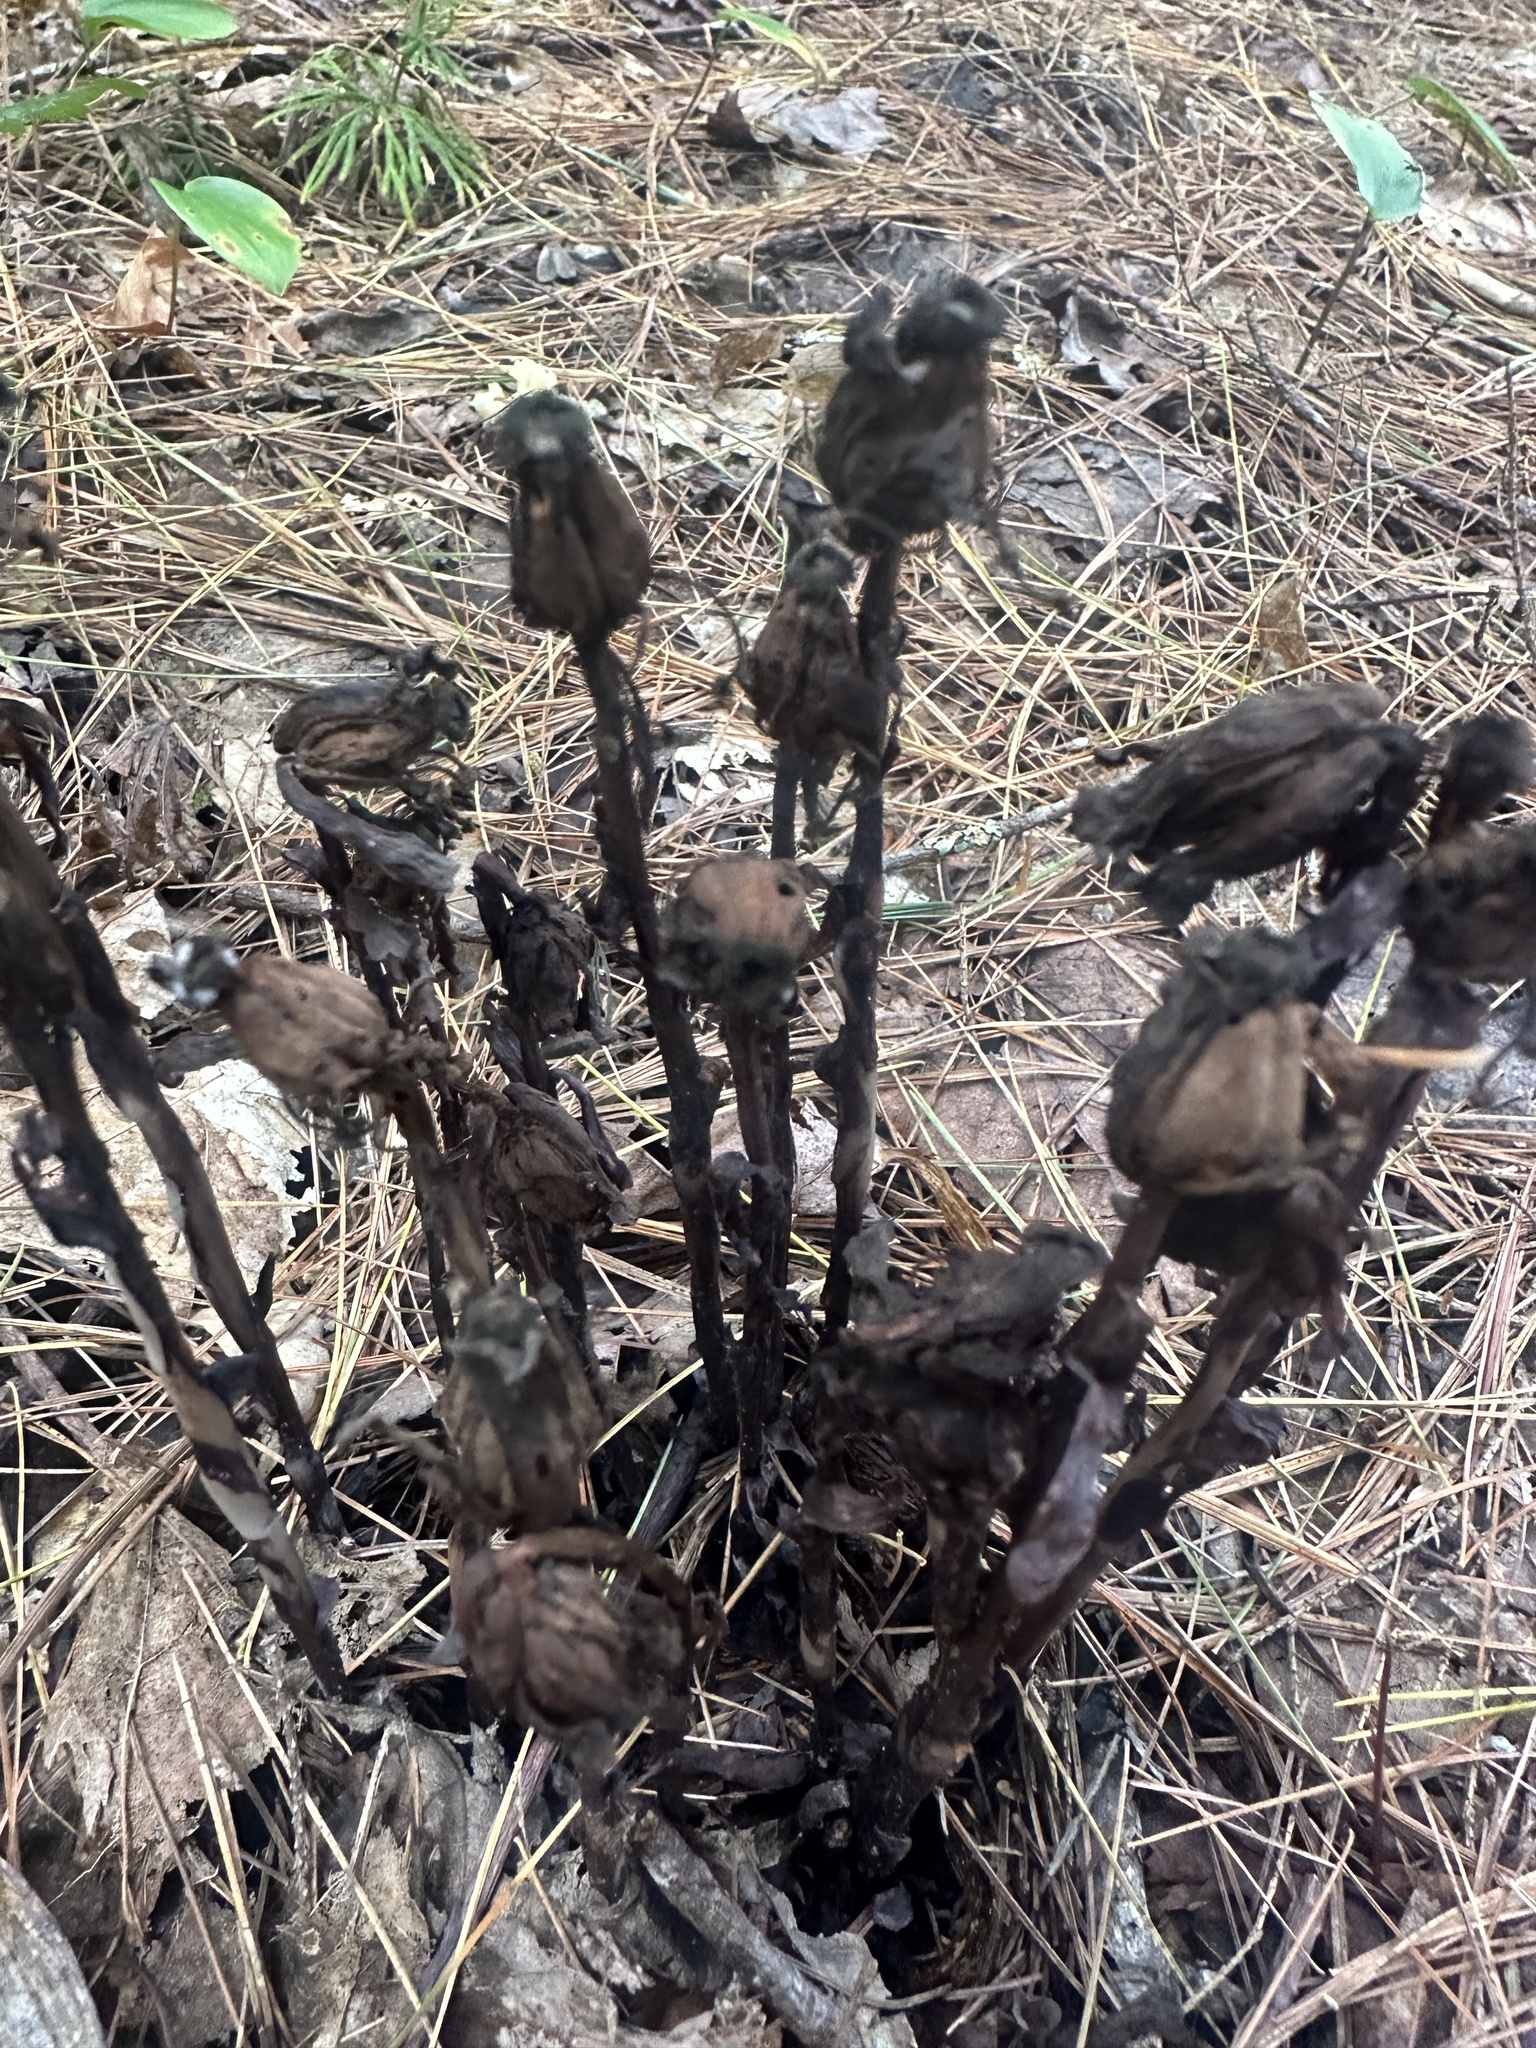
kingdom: Plantae
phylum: Tracheophyta
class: Magnoliopsida
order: Ericales
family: Ericaceae
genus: Monotropa
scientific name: Monotropa uniflora
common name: Convulsion root
